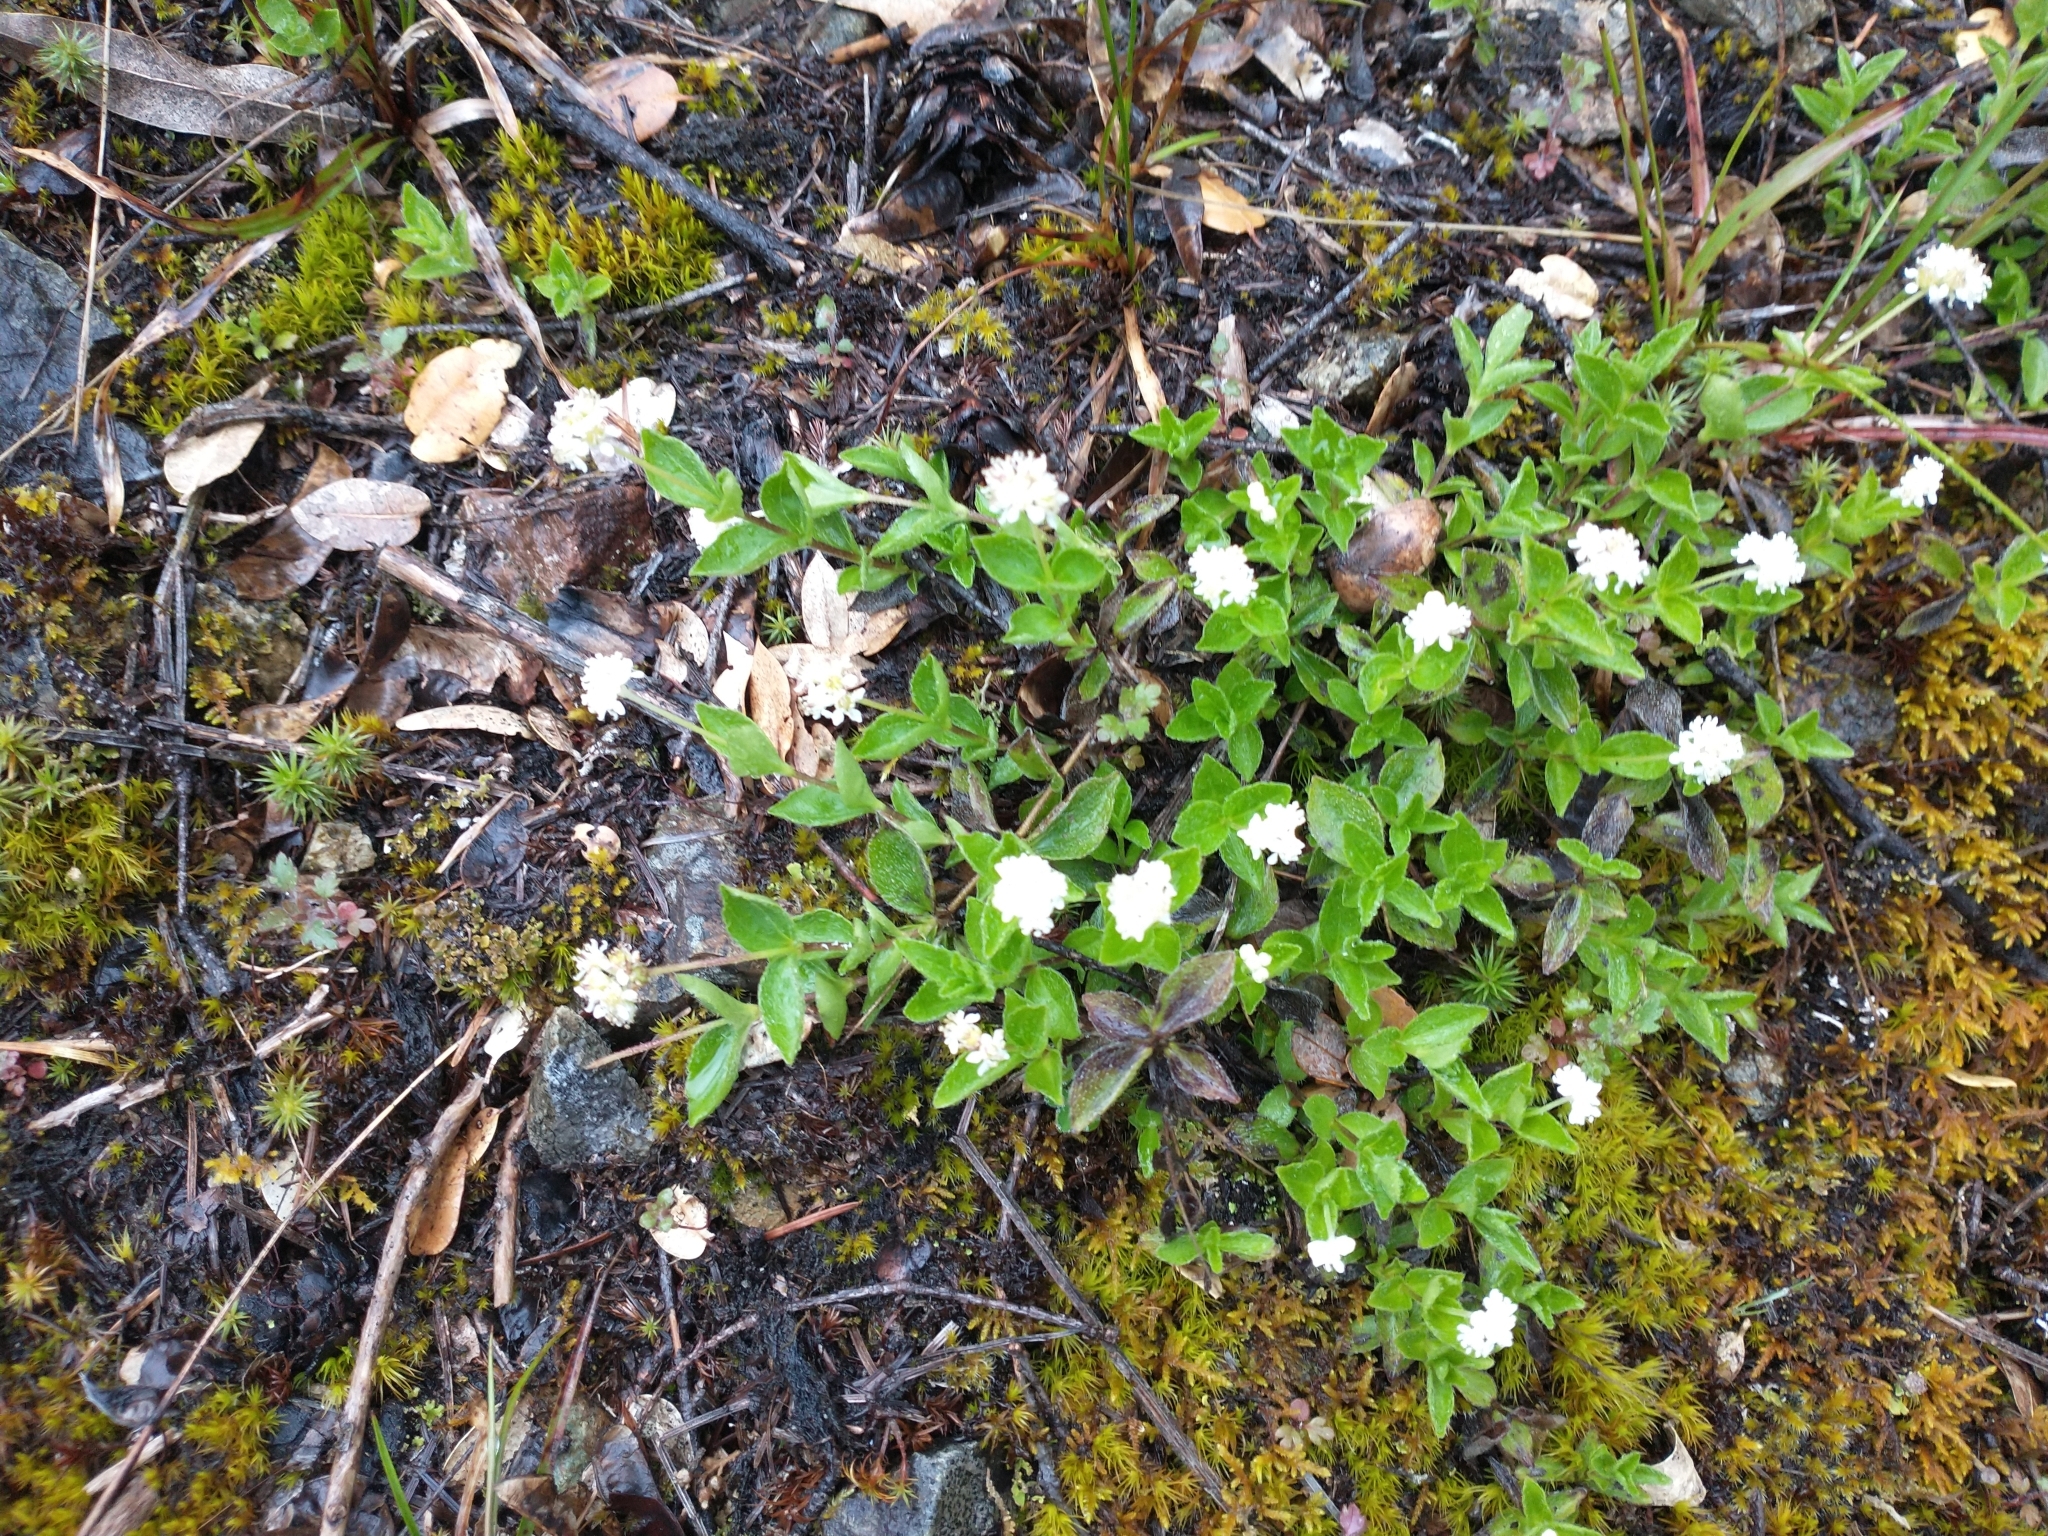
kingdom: Plantae
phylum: Tracheophyta
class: Magnoliopsida
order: Cornales
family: Hydrangeaceae
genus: Whipplea
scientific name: Whipplea modesta
